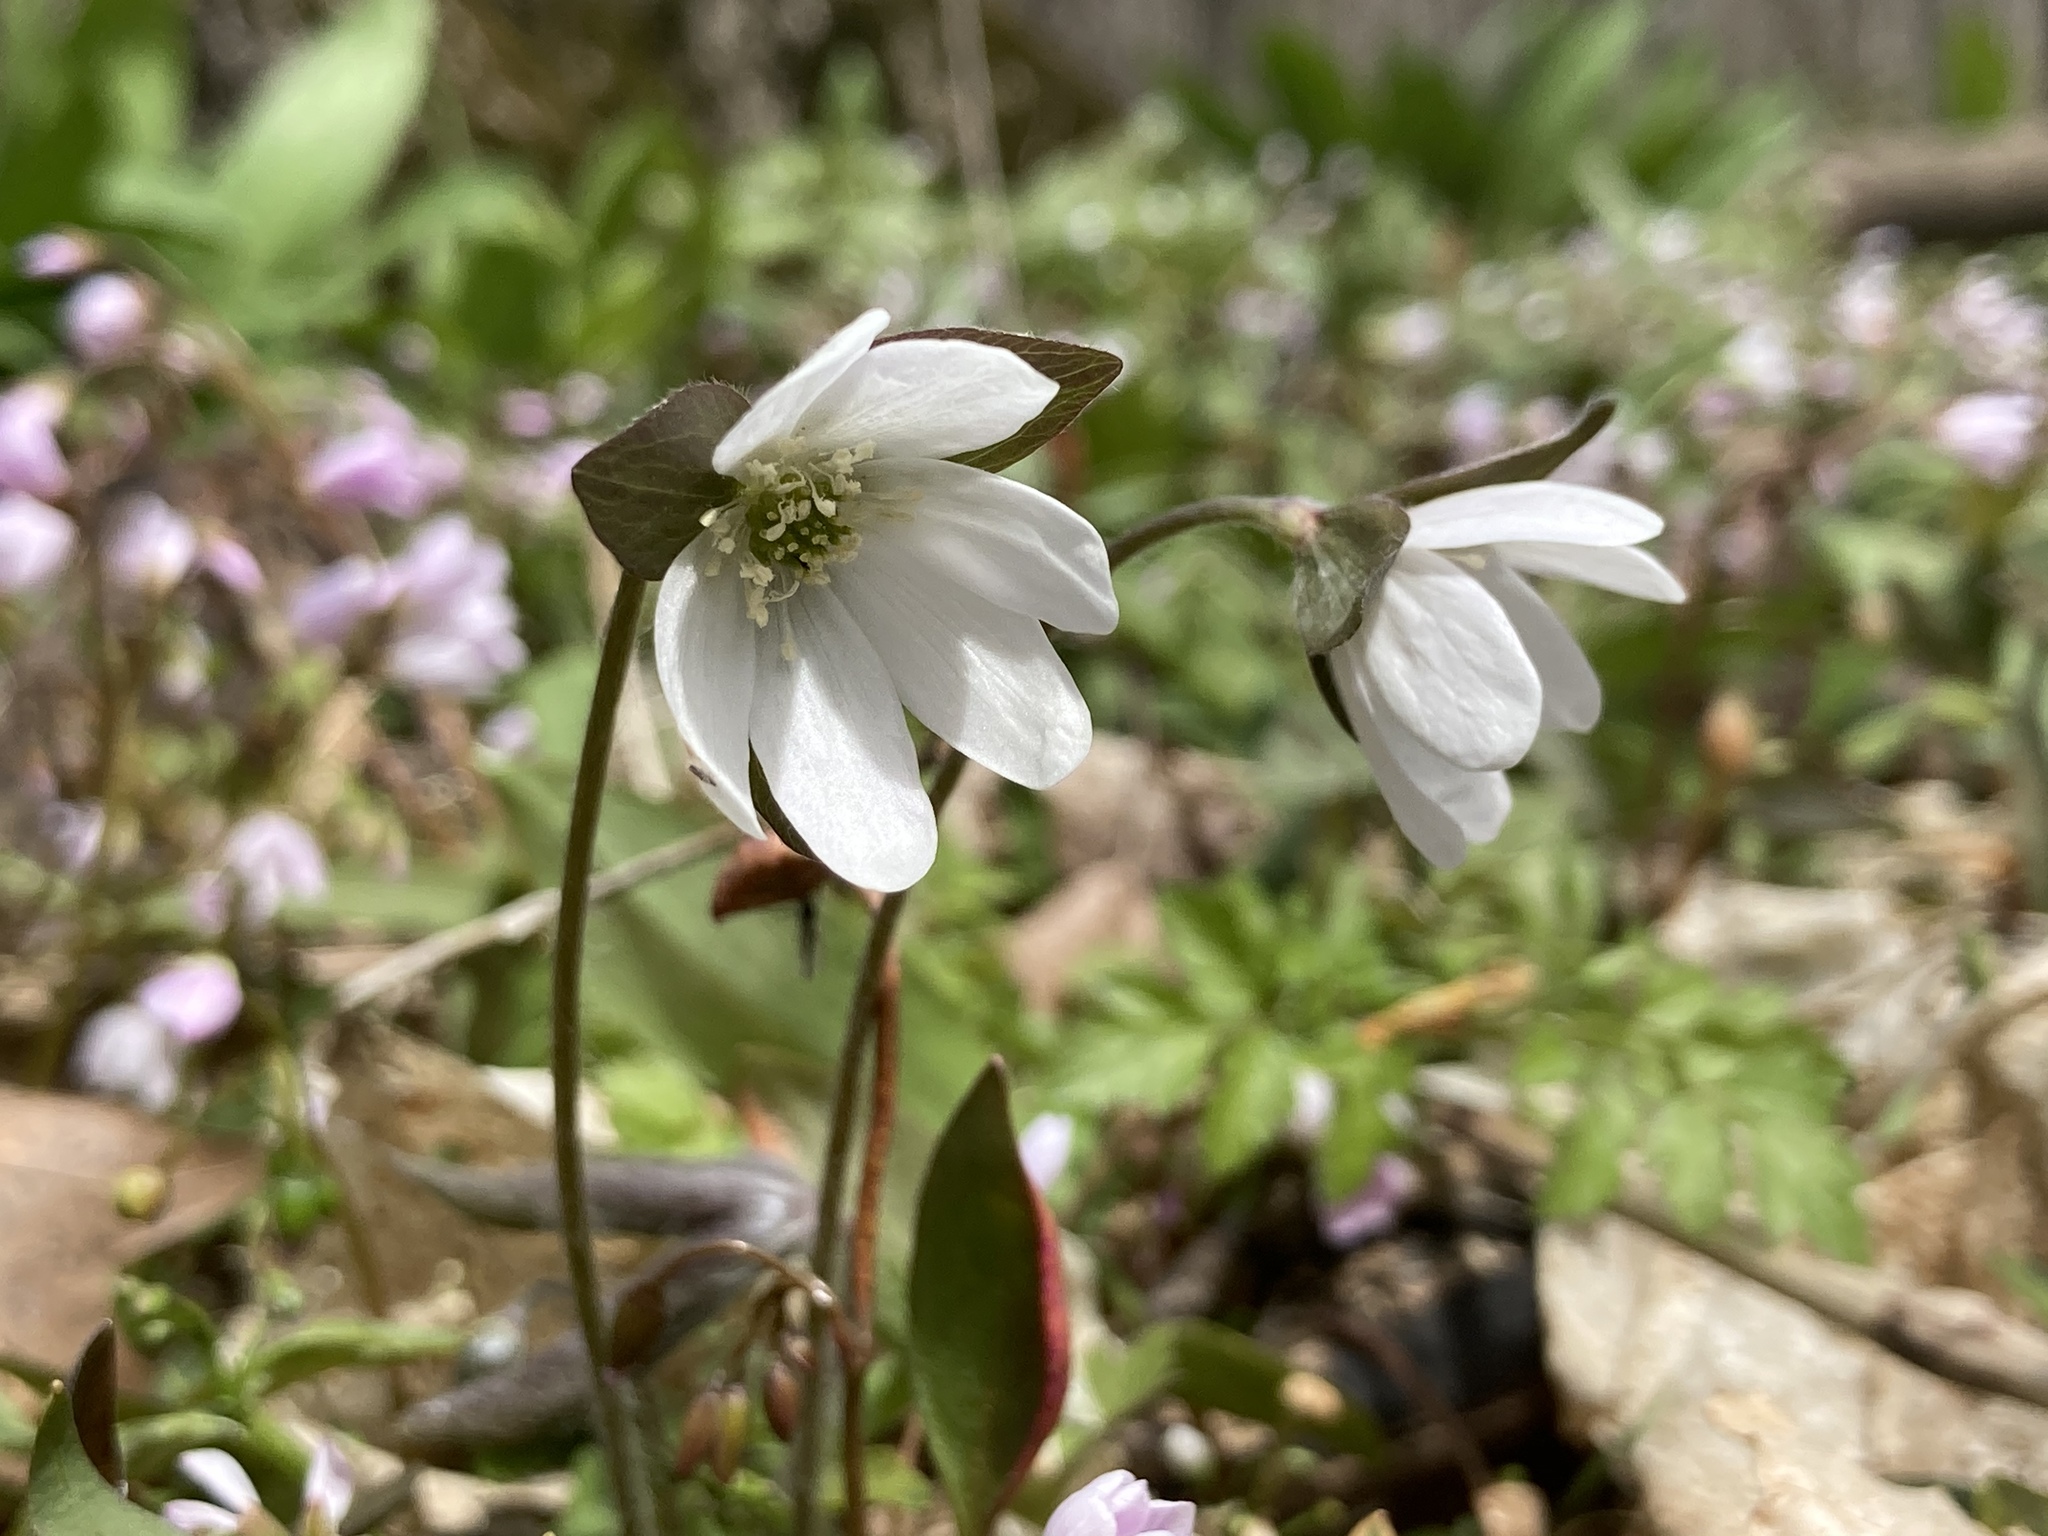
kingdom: Plantae
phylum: Tracheophyta
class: Magnoliopsida
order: Ranunculales
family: Ranunculaceae
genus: Hepatica
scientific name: Hepatica acutiloba
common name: Sharp-lobed hepatica
